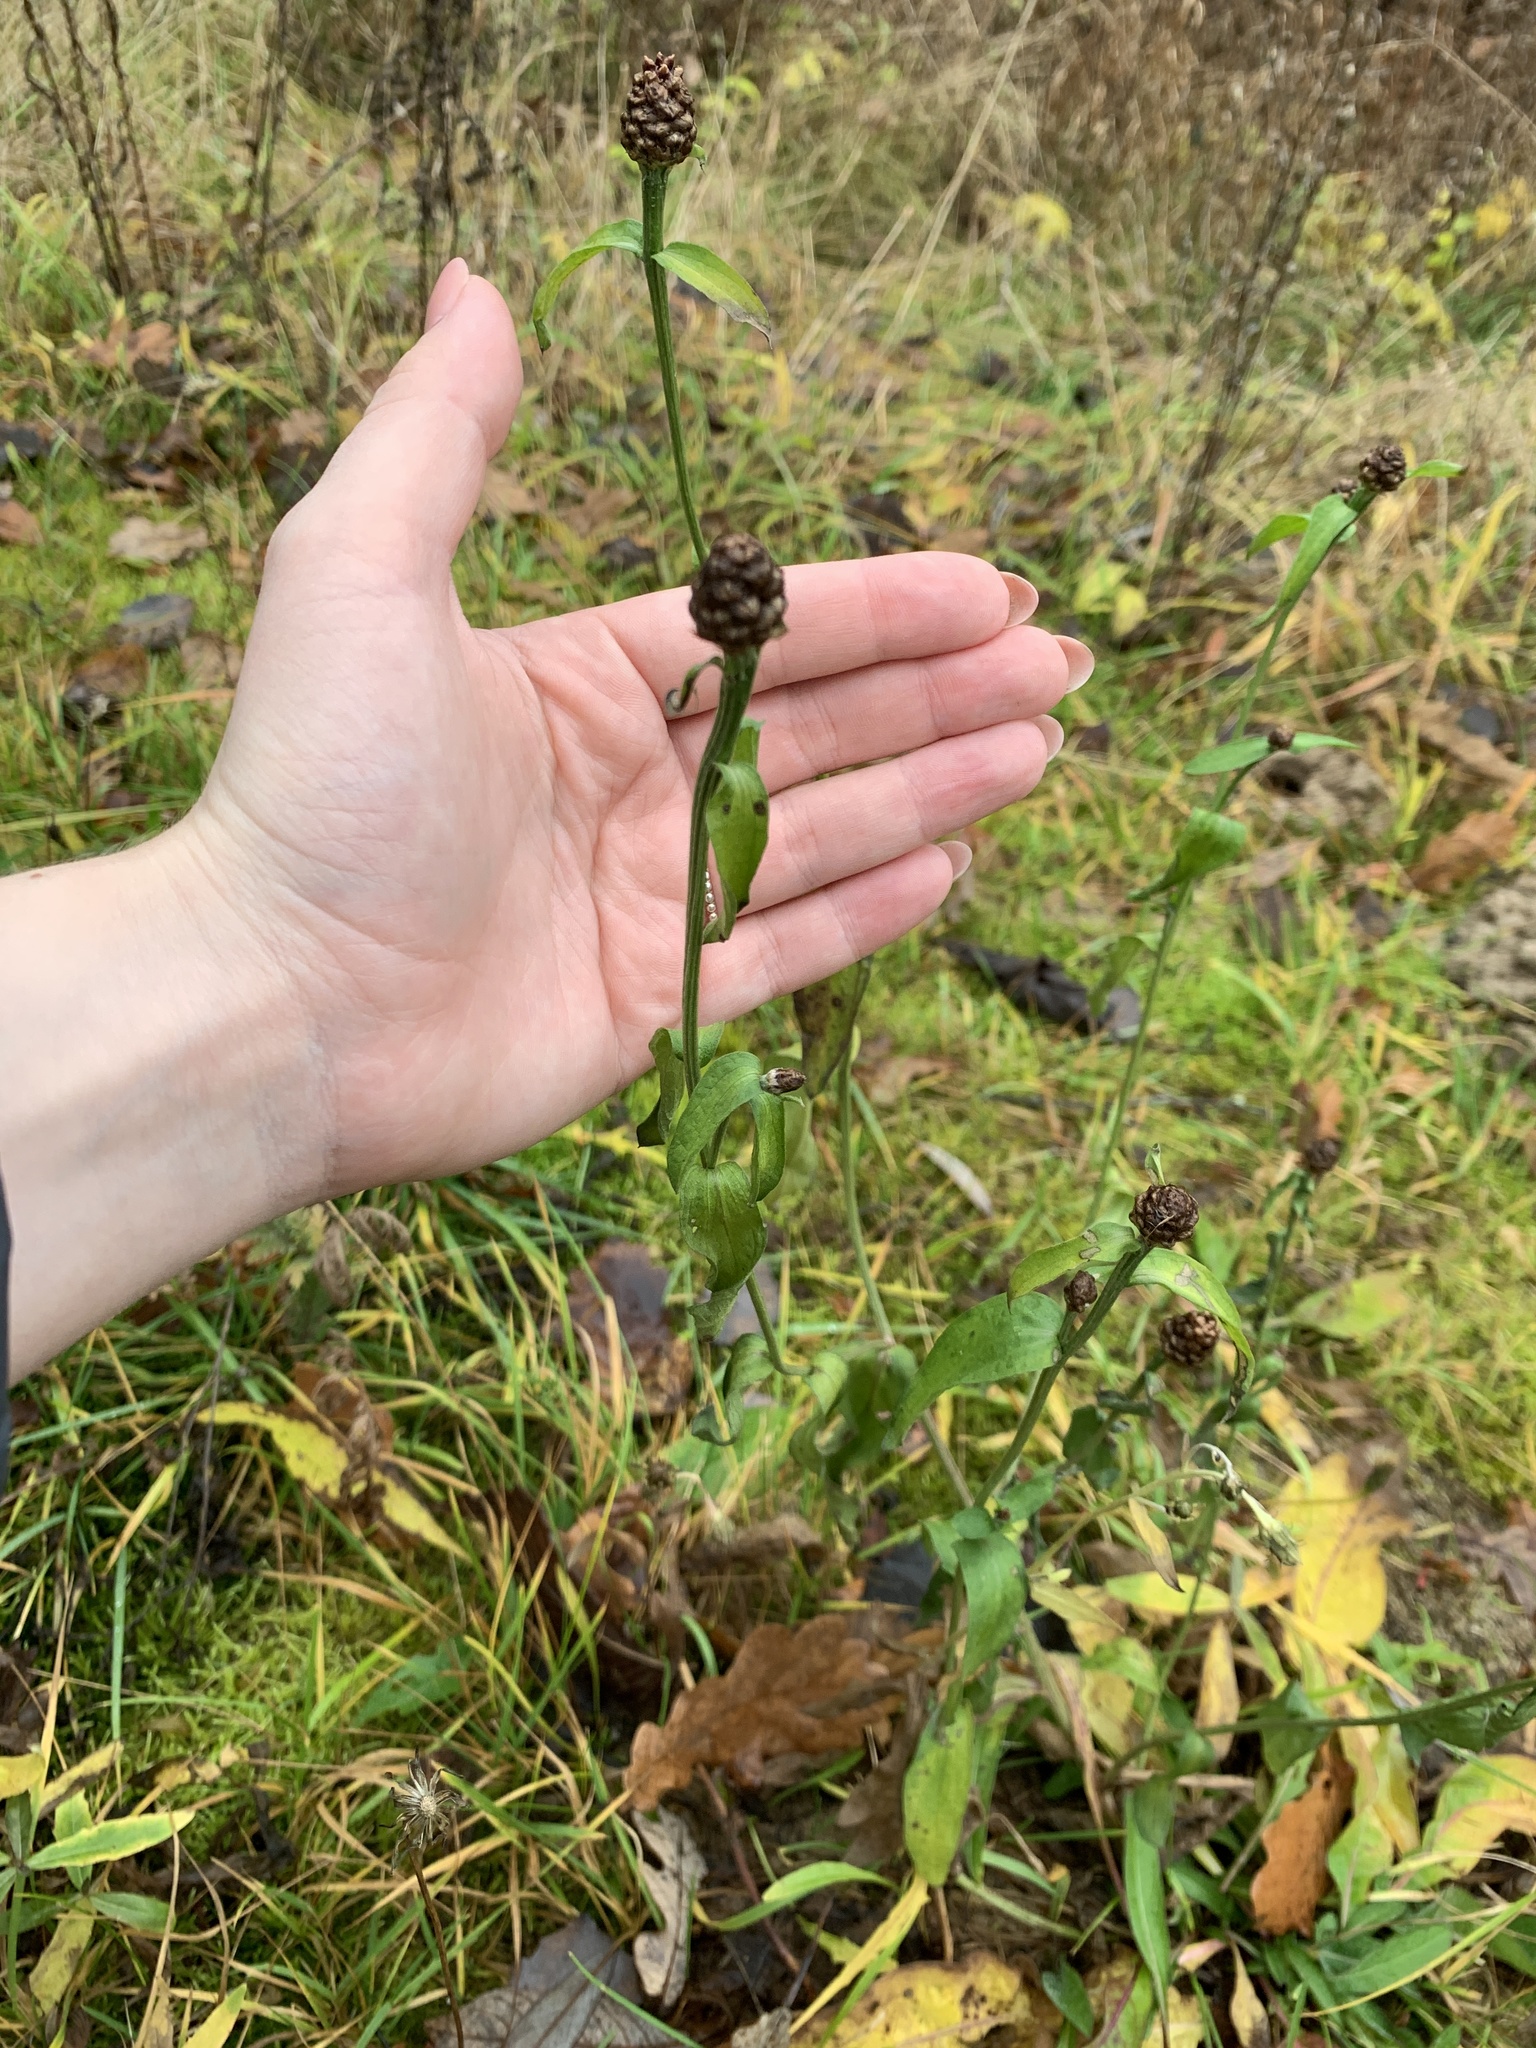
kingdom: Plantae
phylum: Tracheophyta
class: Magnoliopsida
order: Asterales
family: Asteraceae
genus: Centaurea
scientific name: Centaurea jacea
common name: Brown knapweed
